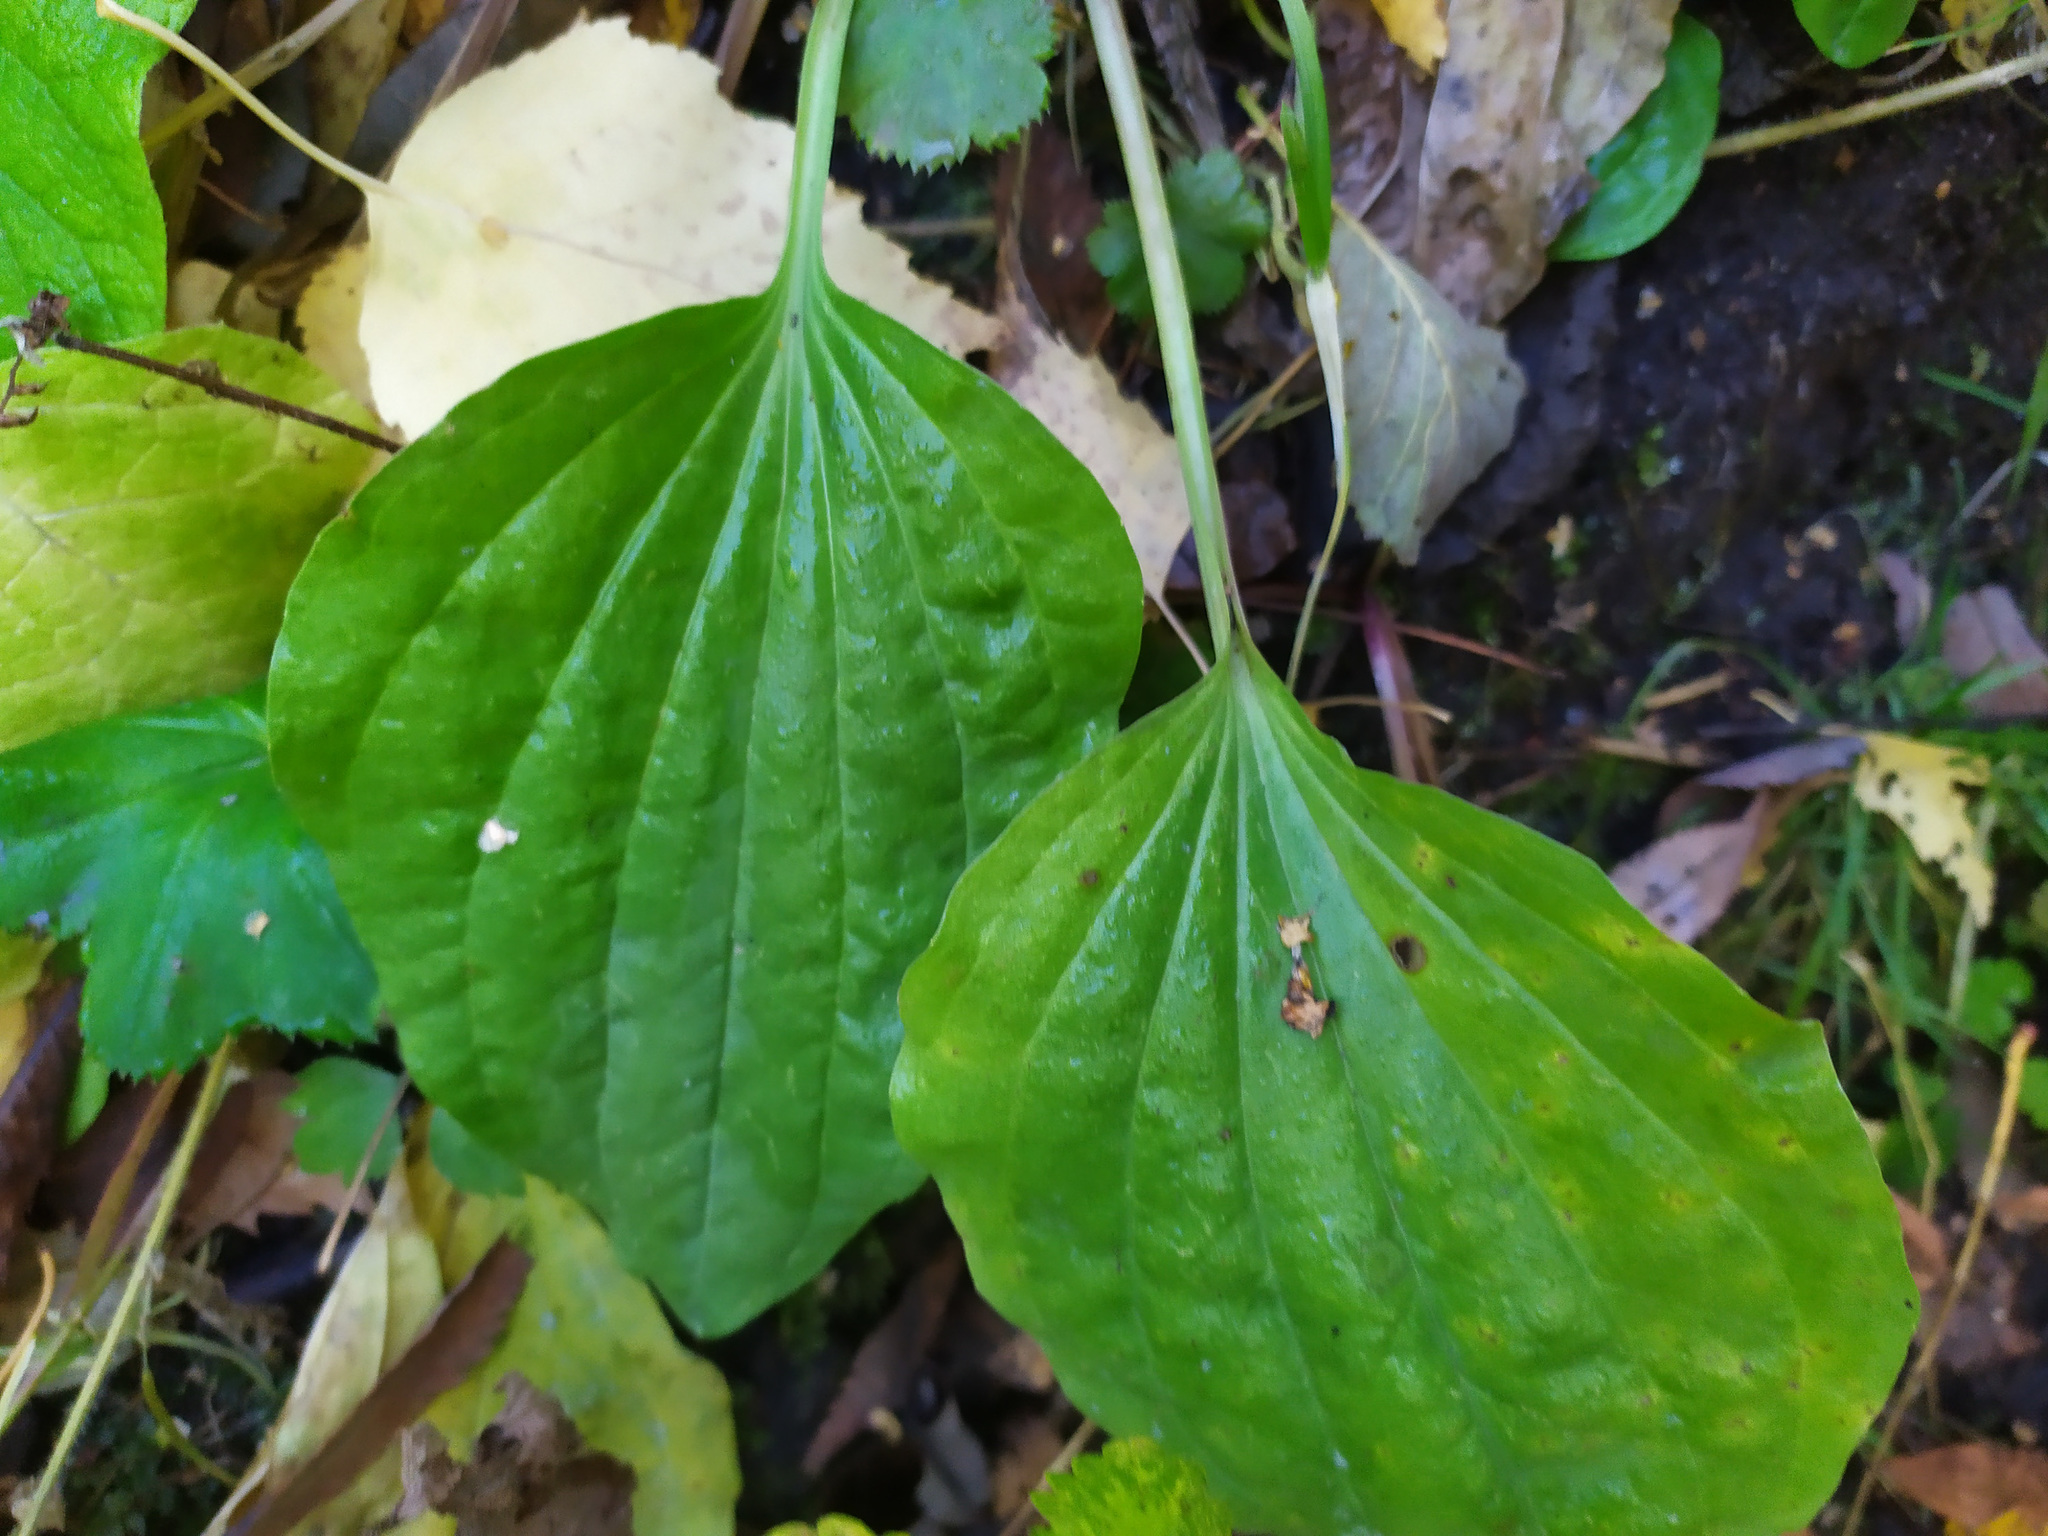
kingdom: Plantae
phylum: Tracheophyta
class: Magnoliopsida
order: Lamiales
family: Plantaginaceae
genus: Plantago
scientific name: Plantago major
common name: Common plantain
